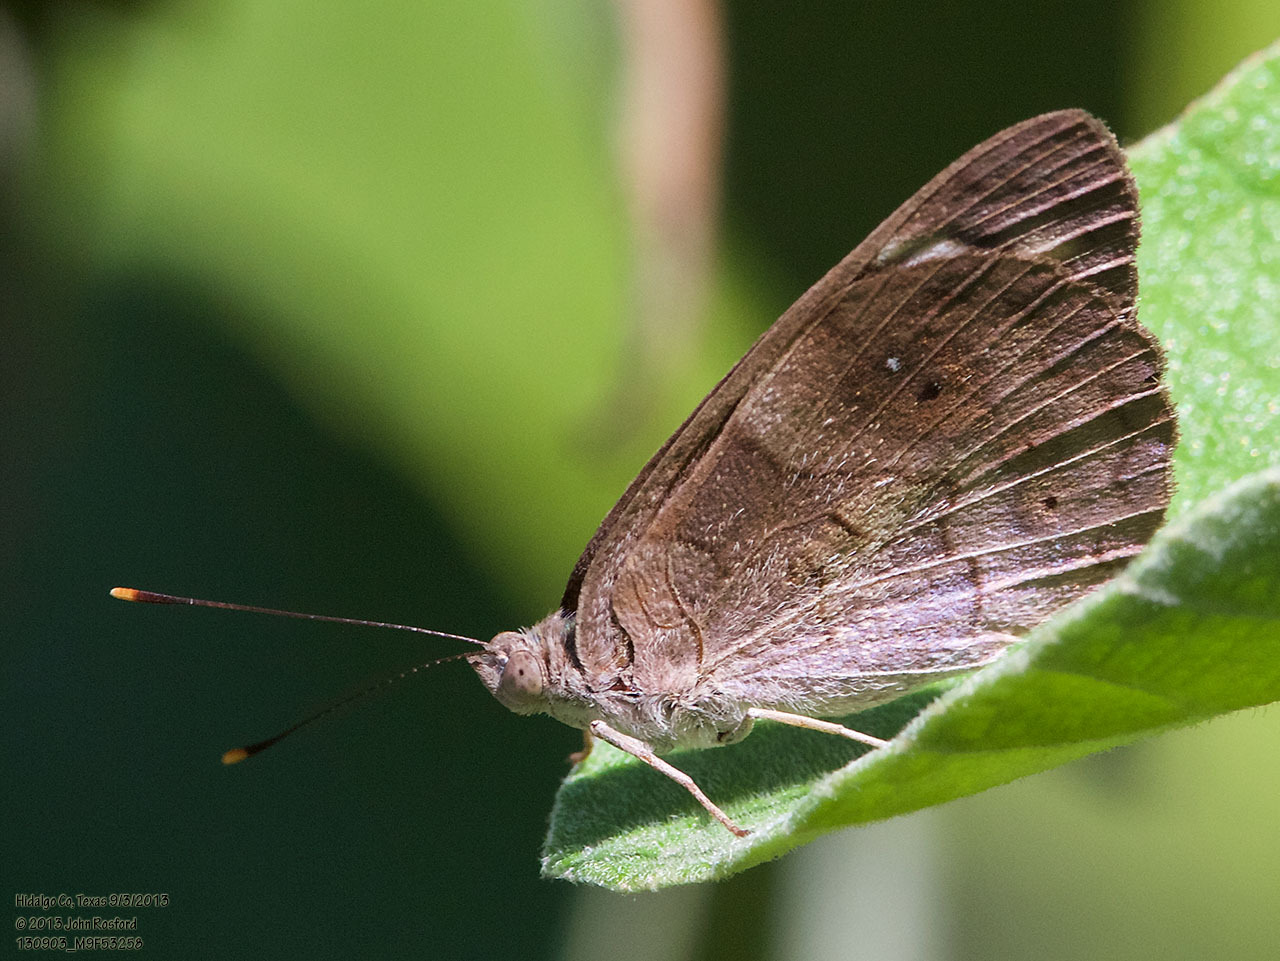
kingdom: Animalia
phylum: Arthropoda
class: Insecta
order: Lepidoptera
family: Nymphalidae
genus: Eunica
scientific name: Eunica monima
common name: Dingy purplewing
